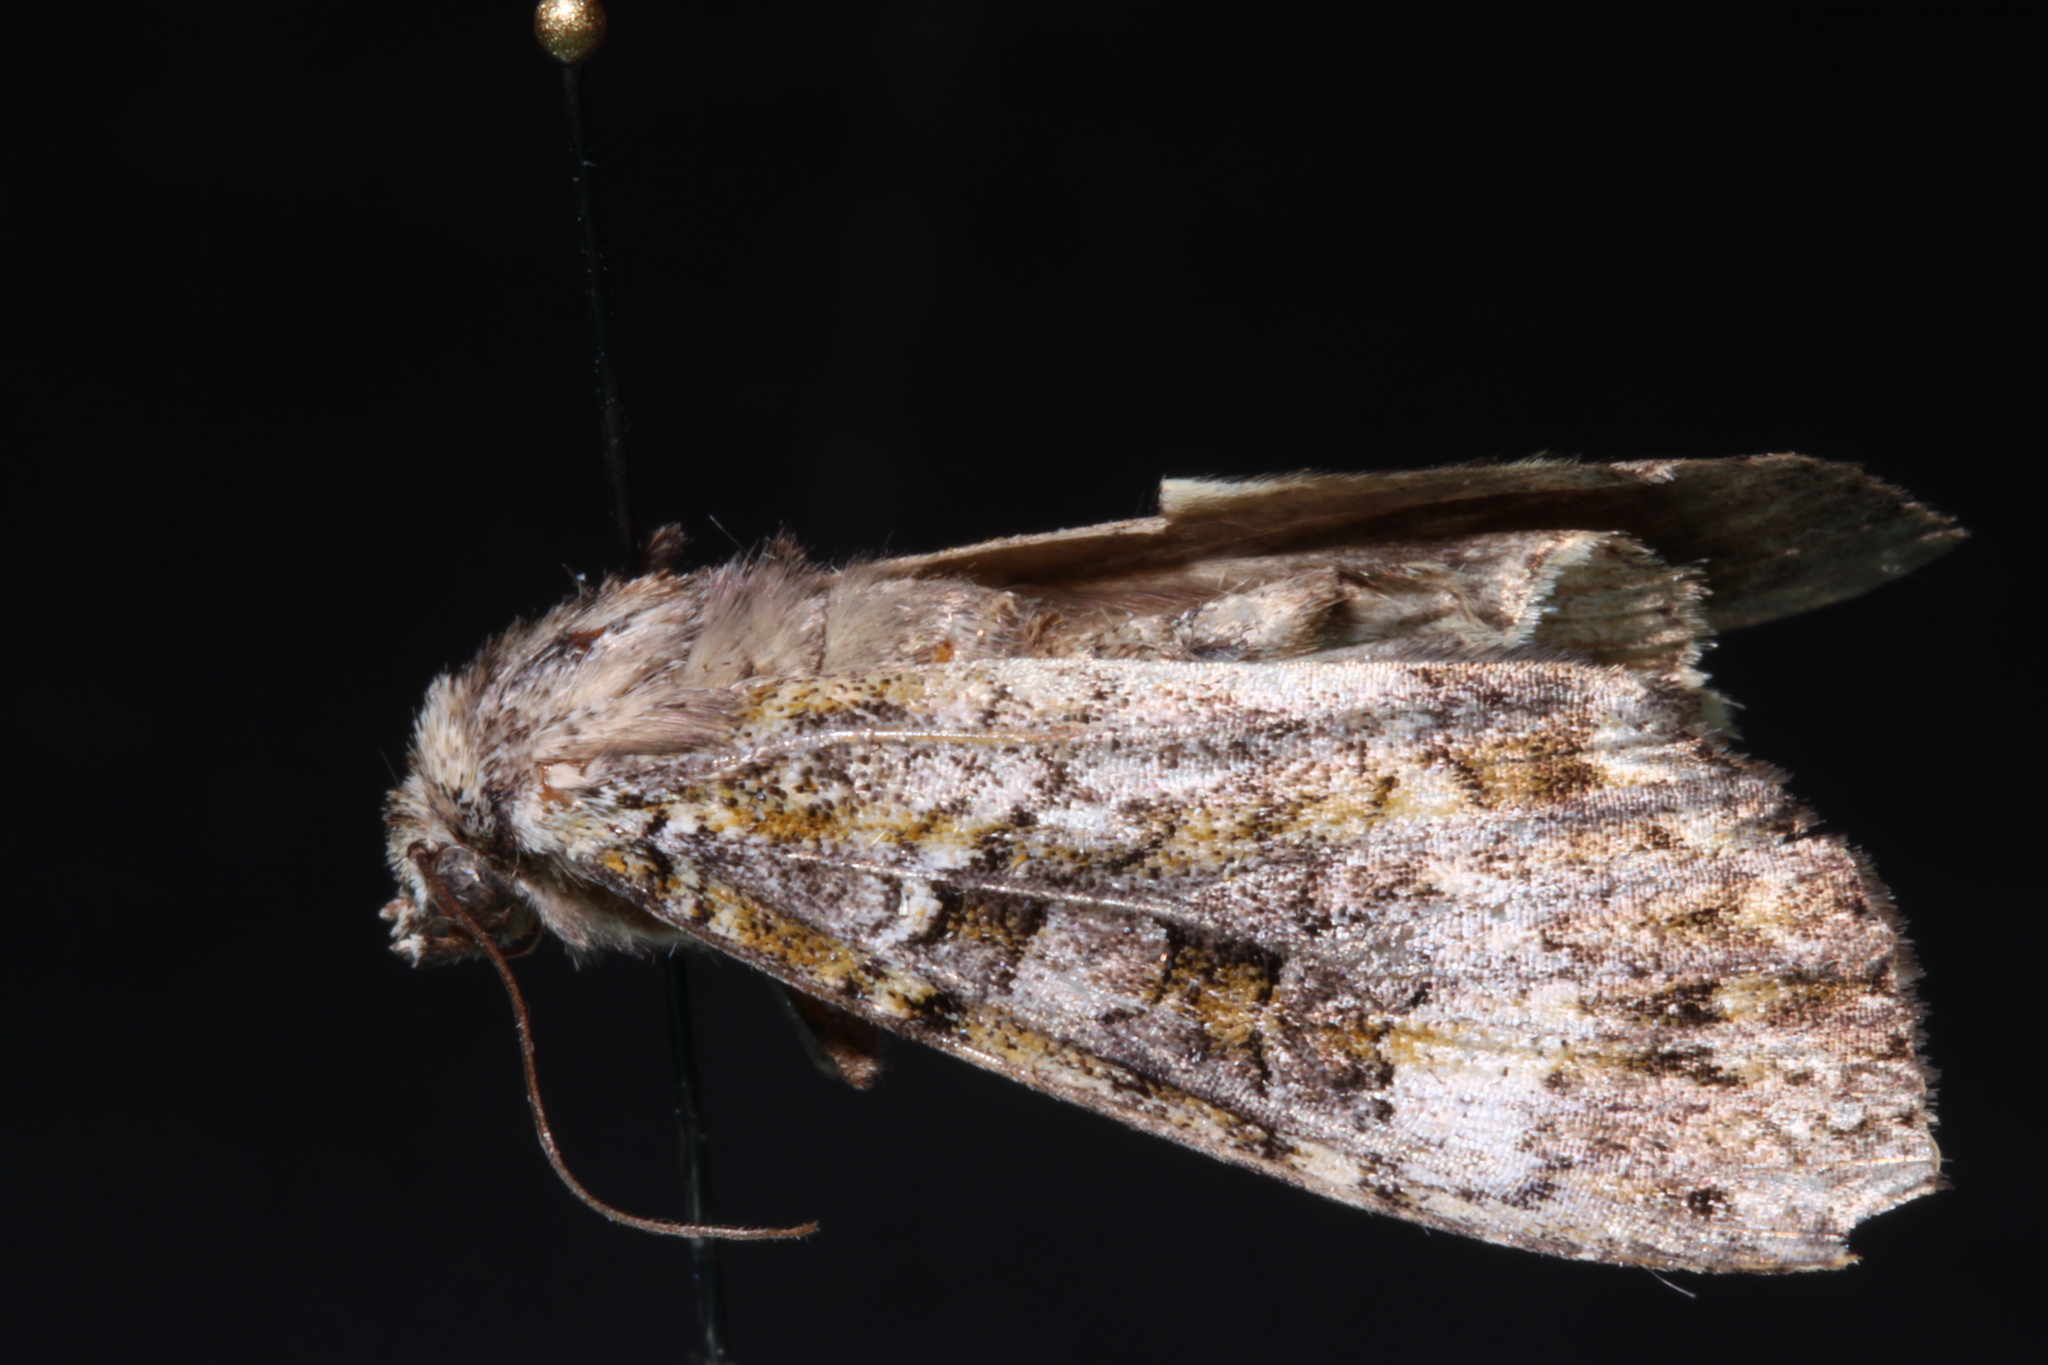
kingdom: Animalia
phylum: Arthropoda
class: Insecta
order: Lepidoptera
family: Noctuidae
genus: Anaplectoides
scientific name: Anaplectoides prasina
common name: Green arches
